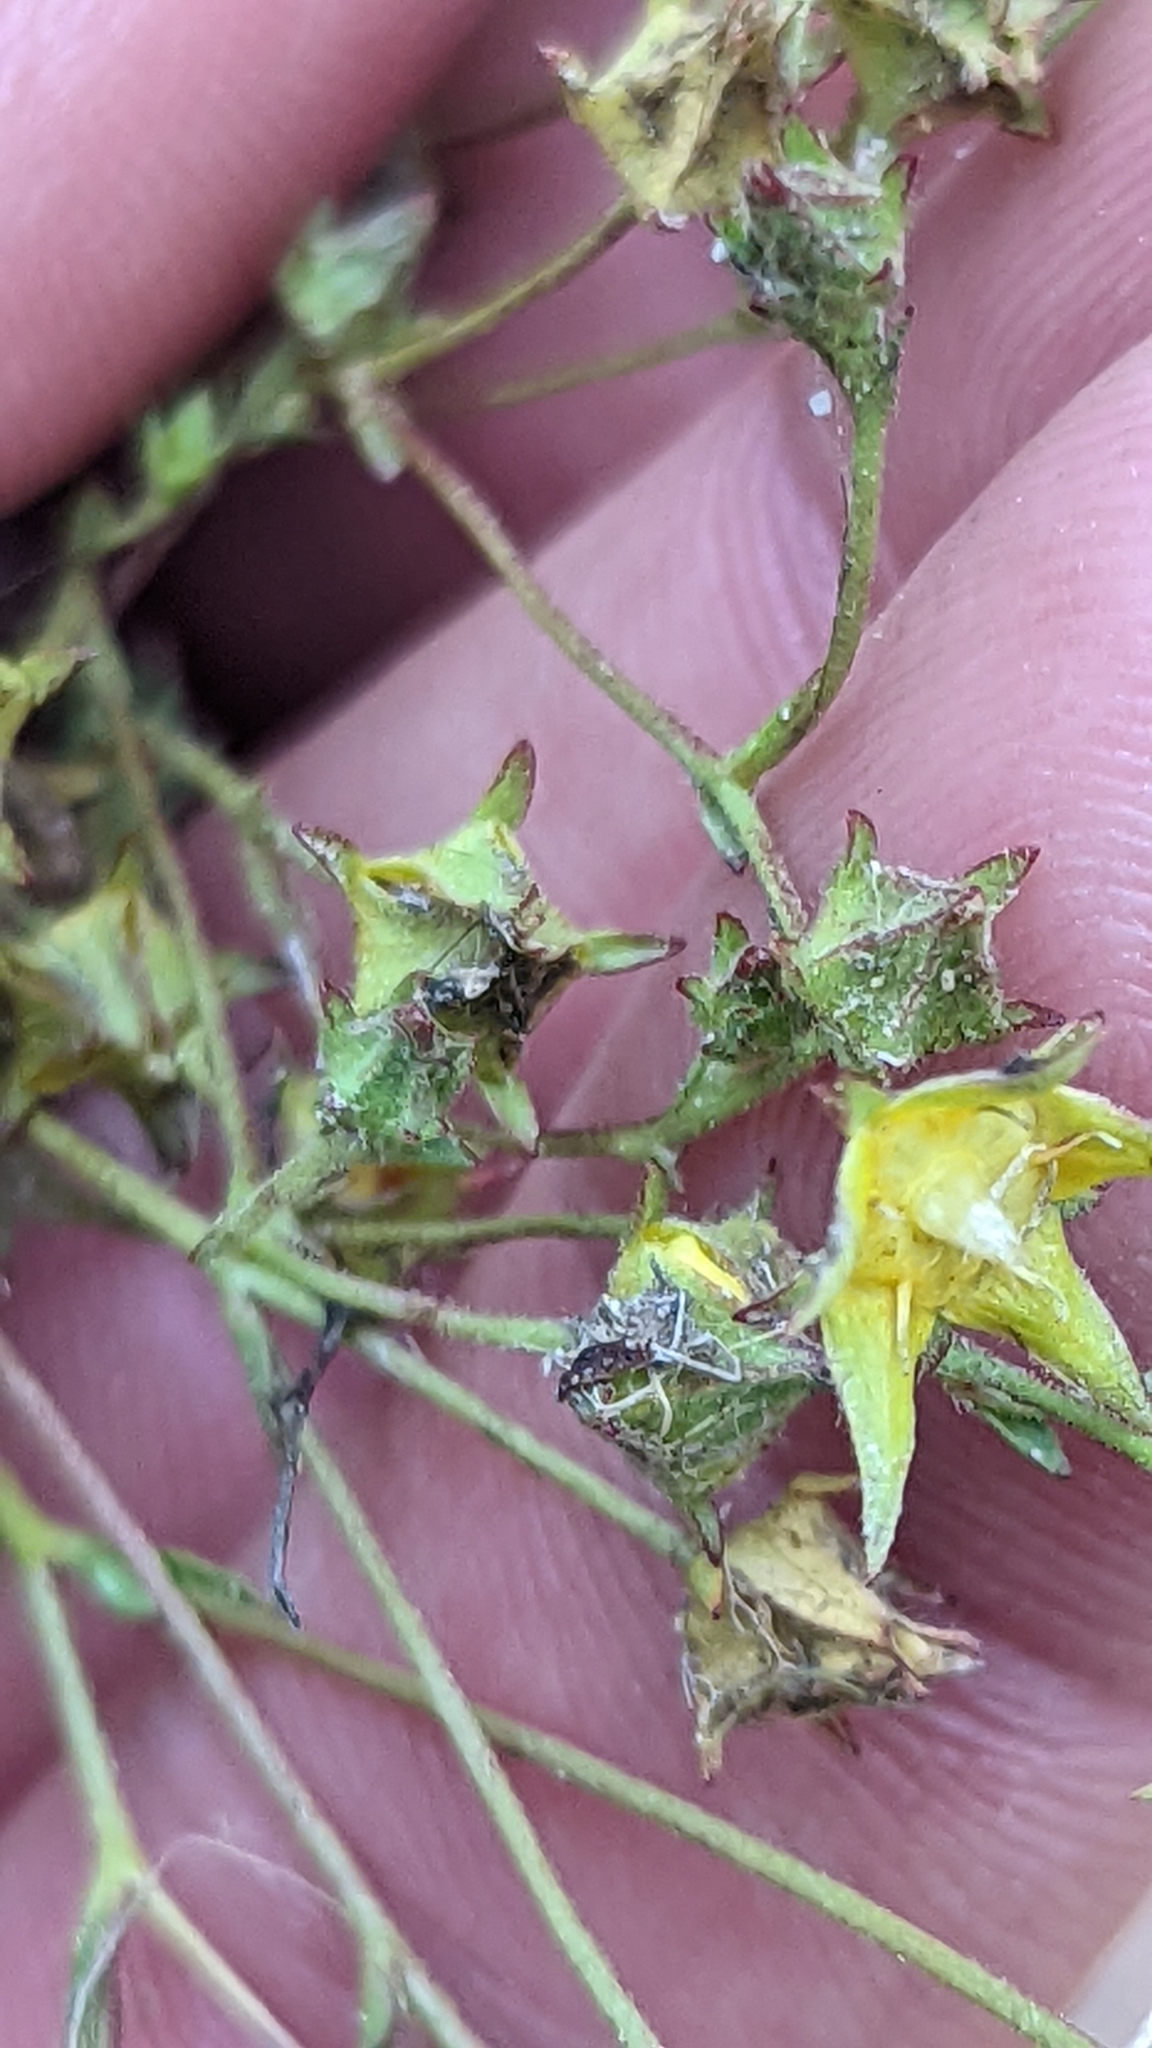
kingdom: Plantae
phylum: Tracheophyta
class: Magnoliopsida
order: Rosales
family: Rosaceae
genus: Potentilla
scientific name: Potentilla sabulosa
